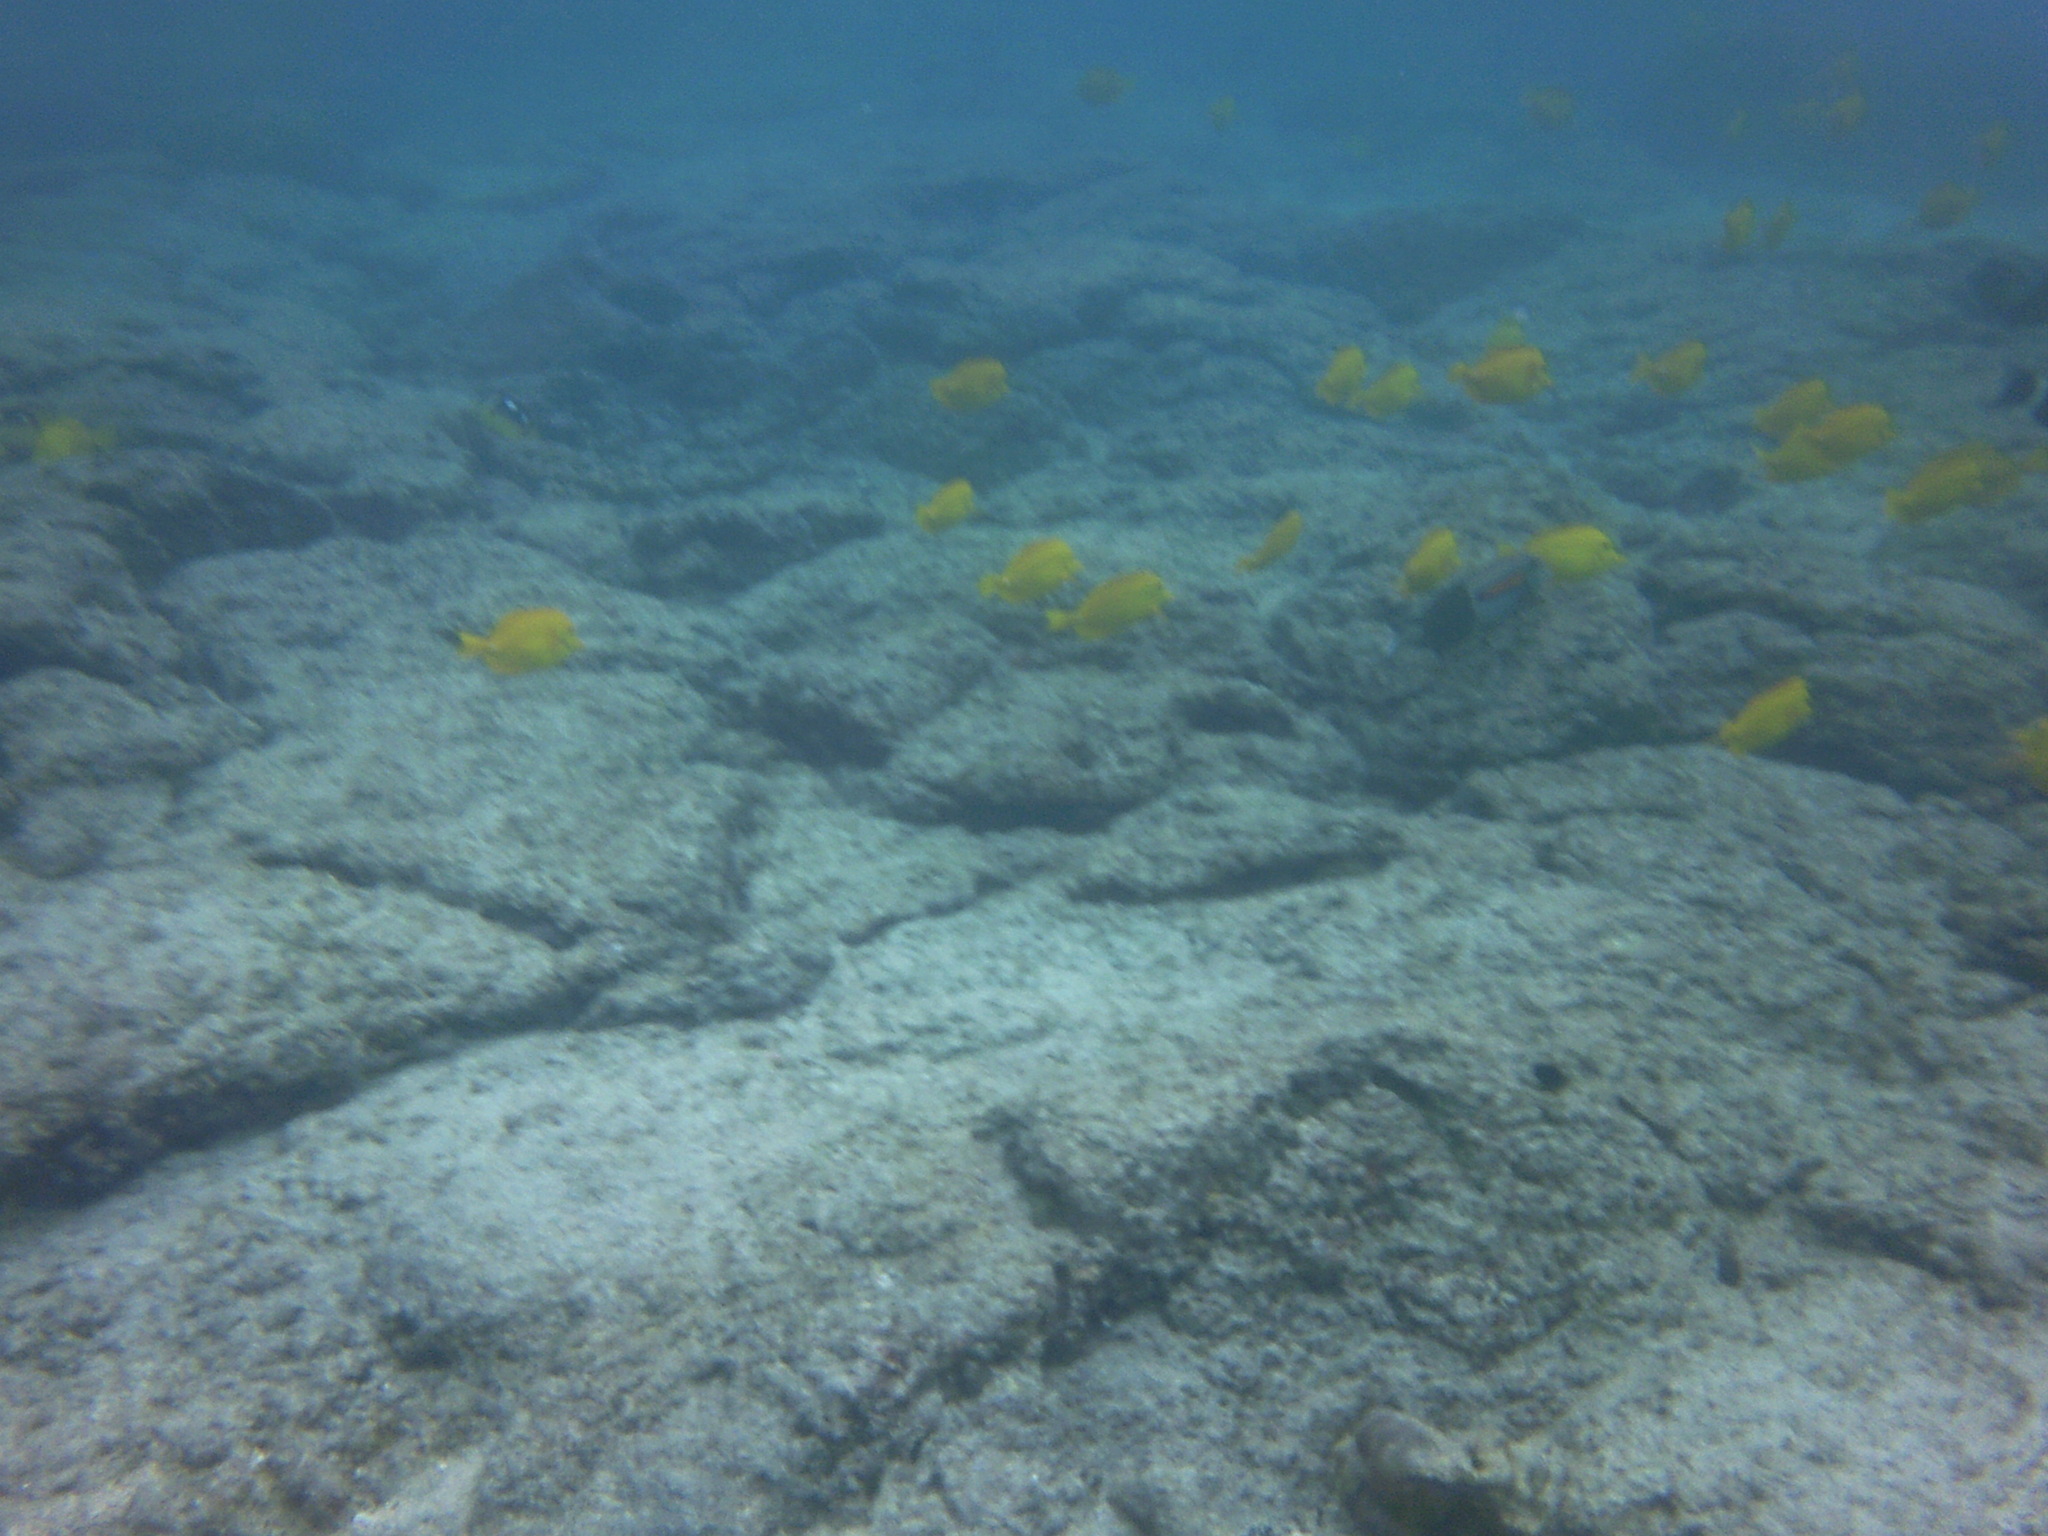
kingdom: Animalia
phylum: Chordata
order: Perciformes
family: Acanthuridae
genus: Zebrasoma
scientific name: Zebrasoma flavescens
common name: Yellow tang
